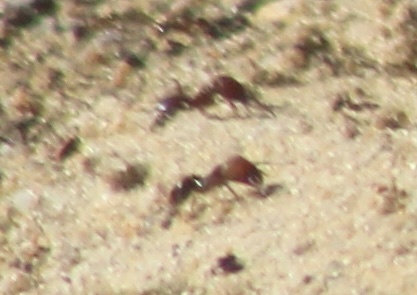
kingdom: Animalia
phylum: Arthropoda
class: Insecta
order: Hymenoptera
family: Formicidae
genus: Pheidole
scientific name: Pheidole obscurithorax
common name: Obscure big-headed ant
